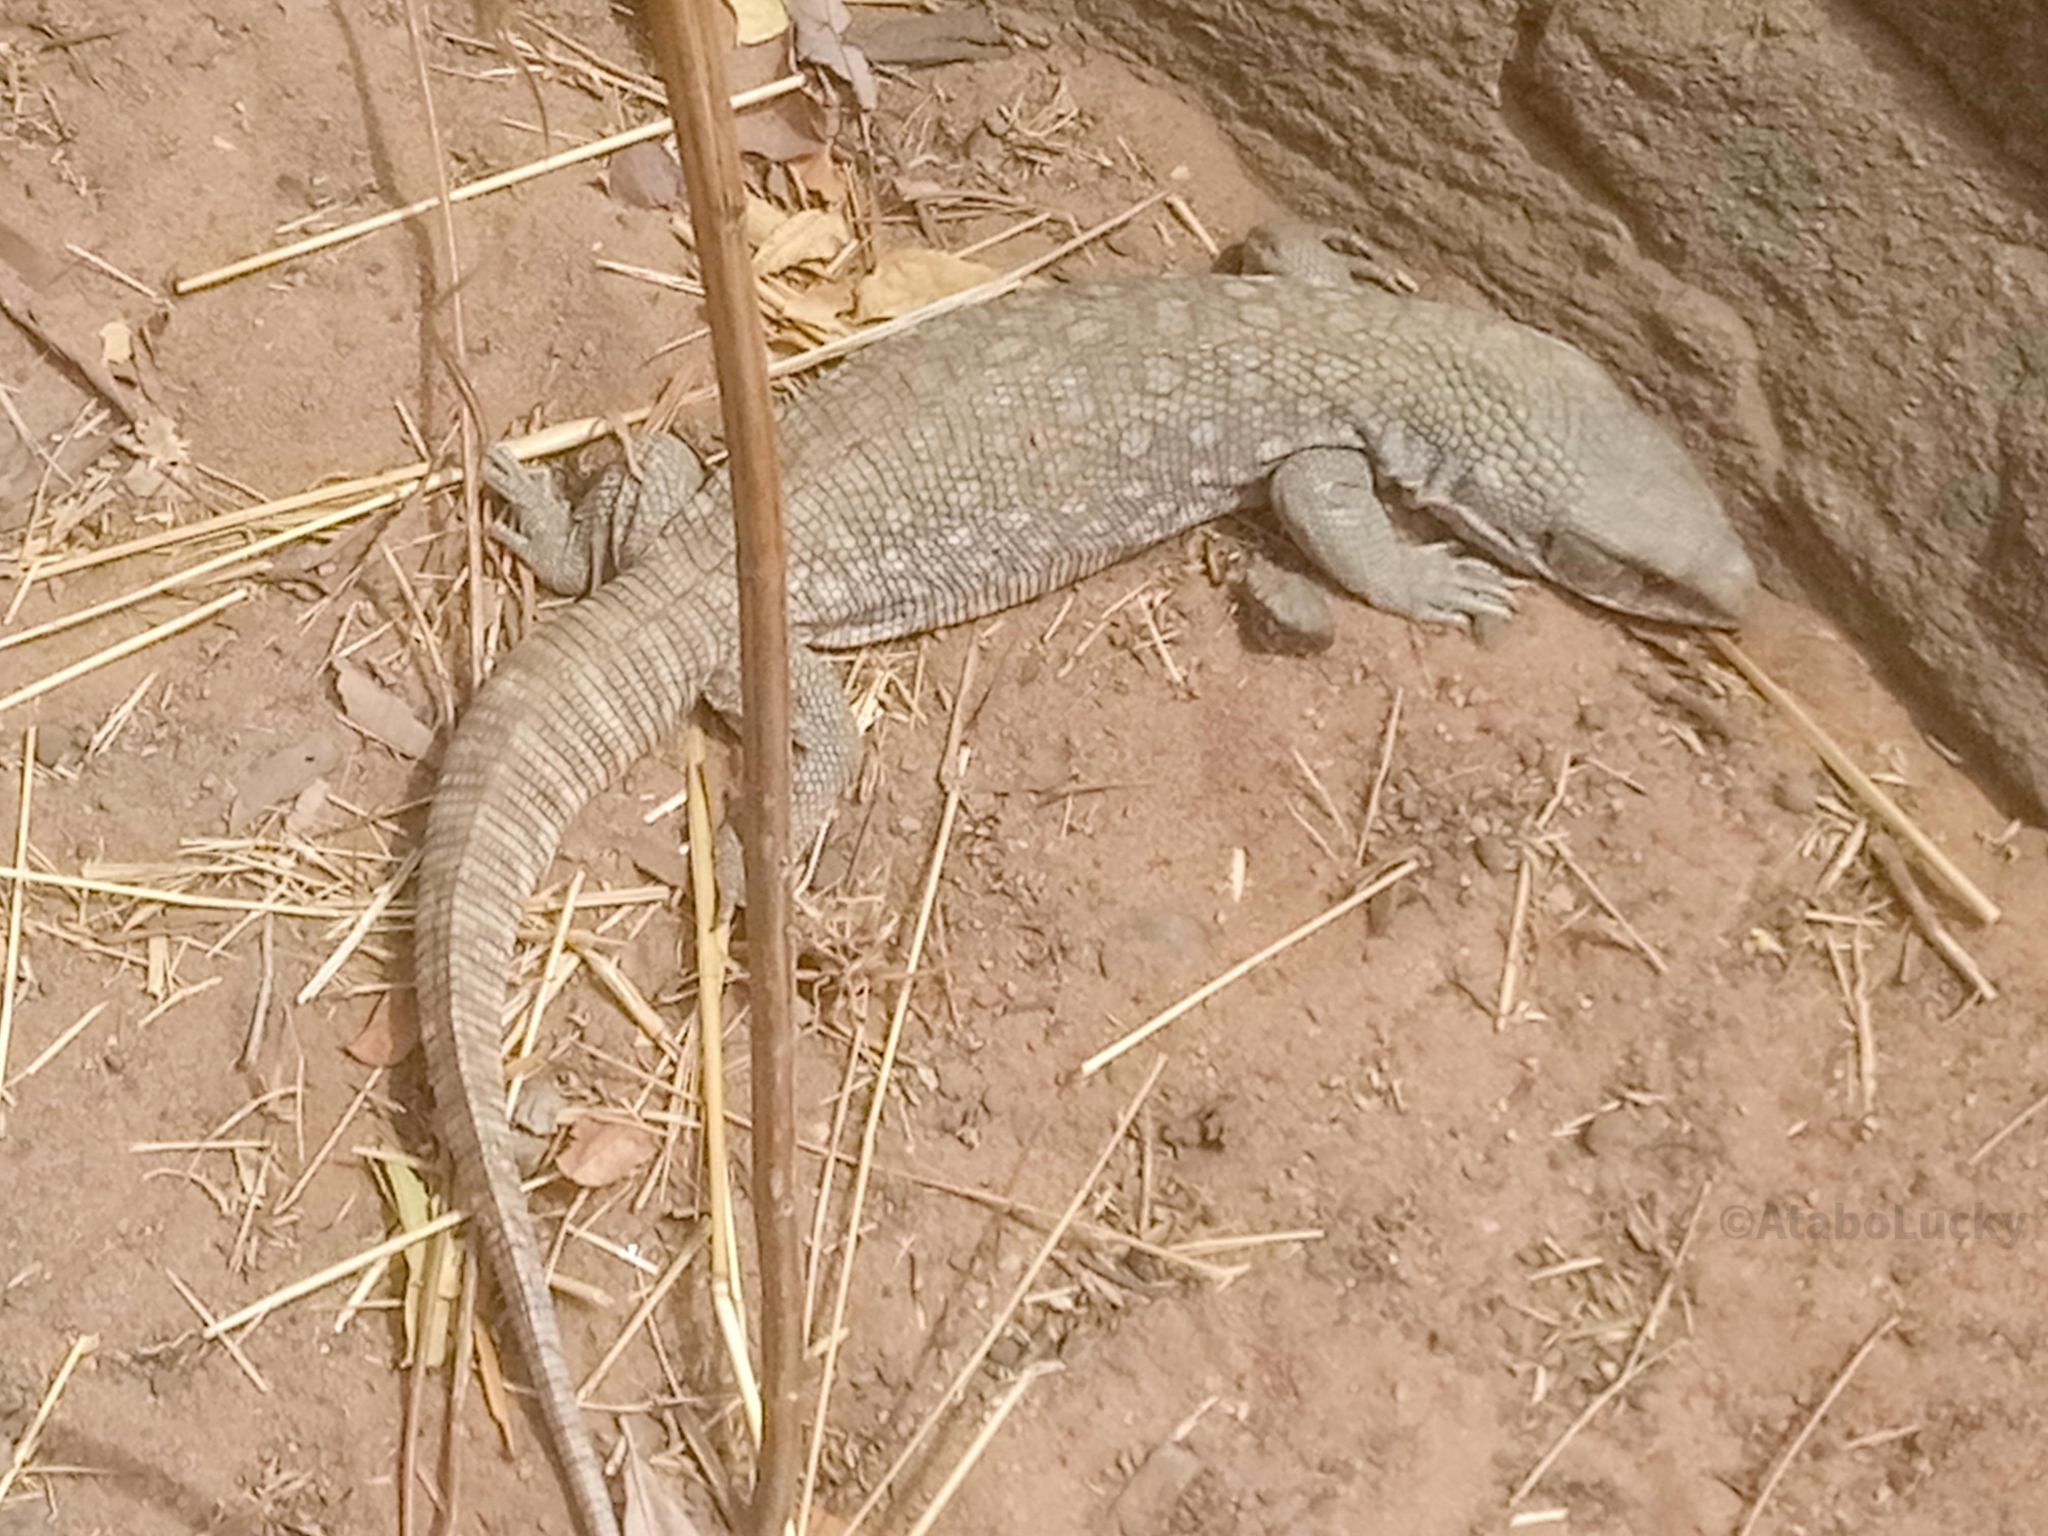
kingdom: Animalia
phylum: Chordata
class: Squamata
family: Varanidae
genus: Varanus
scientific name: Varanus exanthematicus
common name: Savannah monitor
